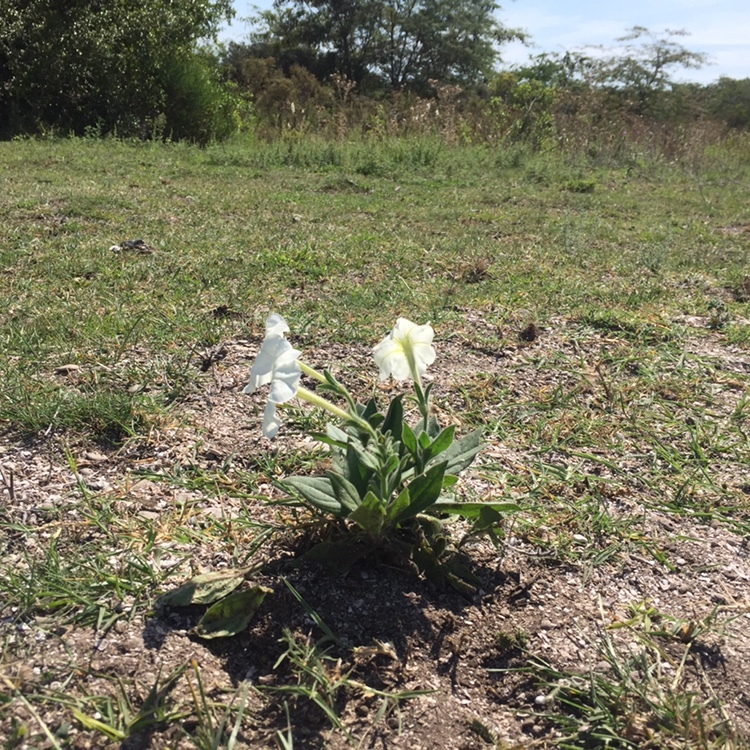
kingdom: Plantae
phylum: Tracheophyta
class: Magnoliopsida
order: Solanales
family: Solanaceae
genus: Petunia
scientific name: Petunia axillaris
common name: Large white petunia
